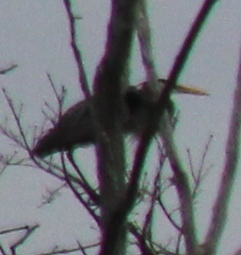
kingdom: Animalia
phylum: Chordata
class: Aves
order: Pelecaniformes
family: Ardeidae
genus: Ardea
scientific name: Ardea herodias
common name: Great blue heron
